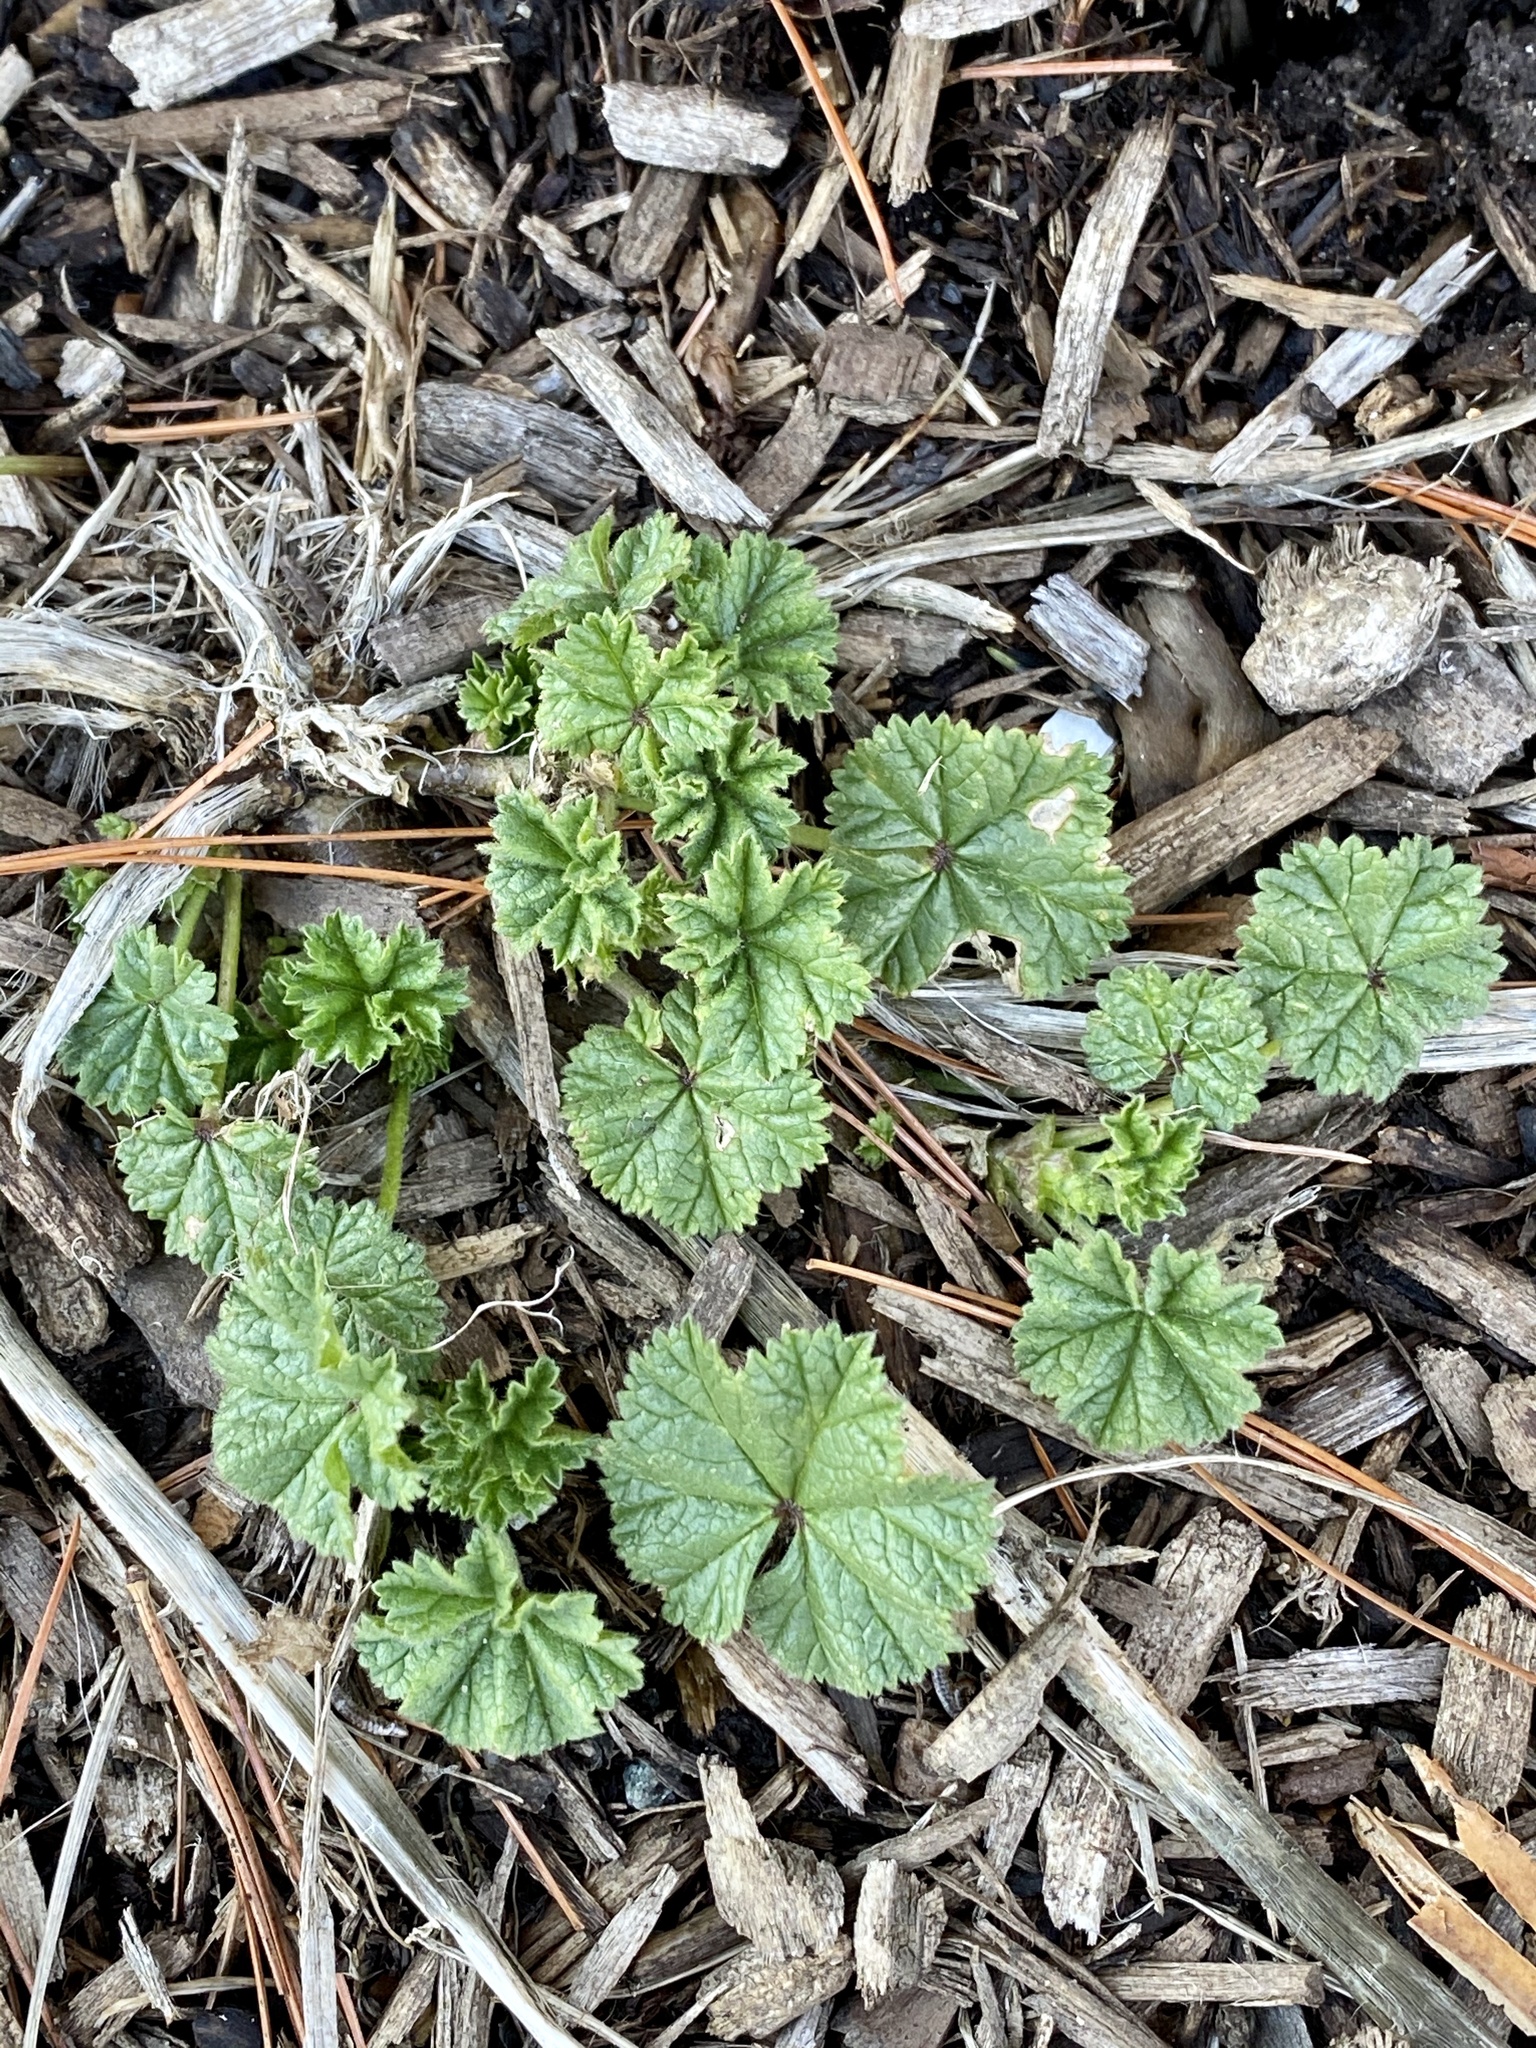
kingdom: Plantae
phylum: Tracheophyta
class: Magnoliopsida
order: Malvales
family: Malvaceae
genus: Malva
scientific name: Malva neglecta
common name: Common mallow
